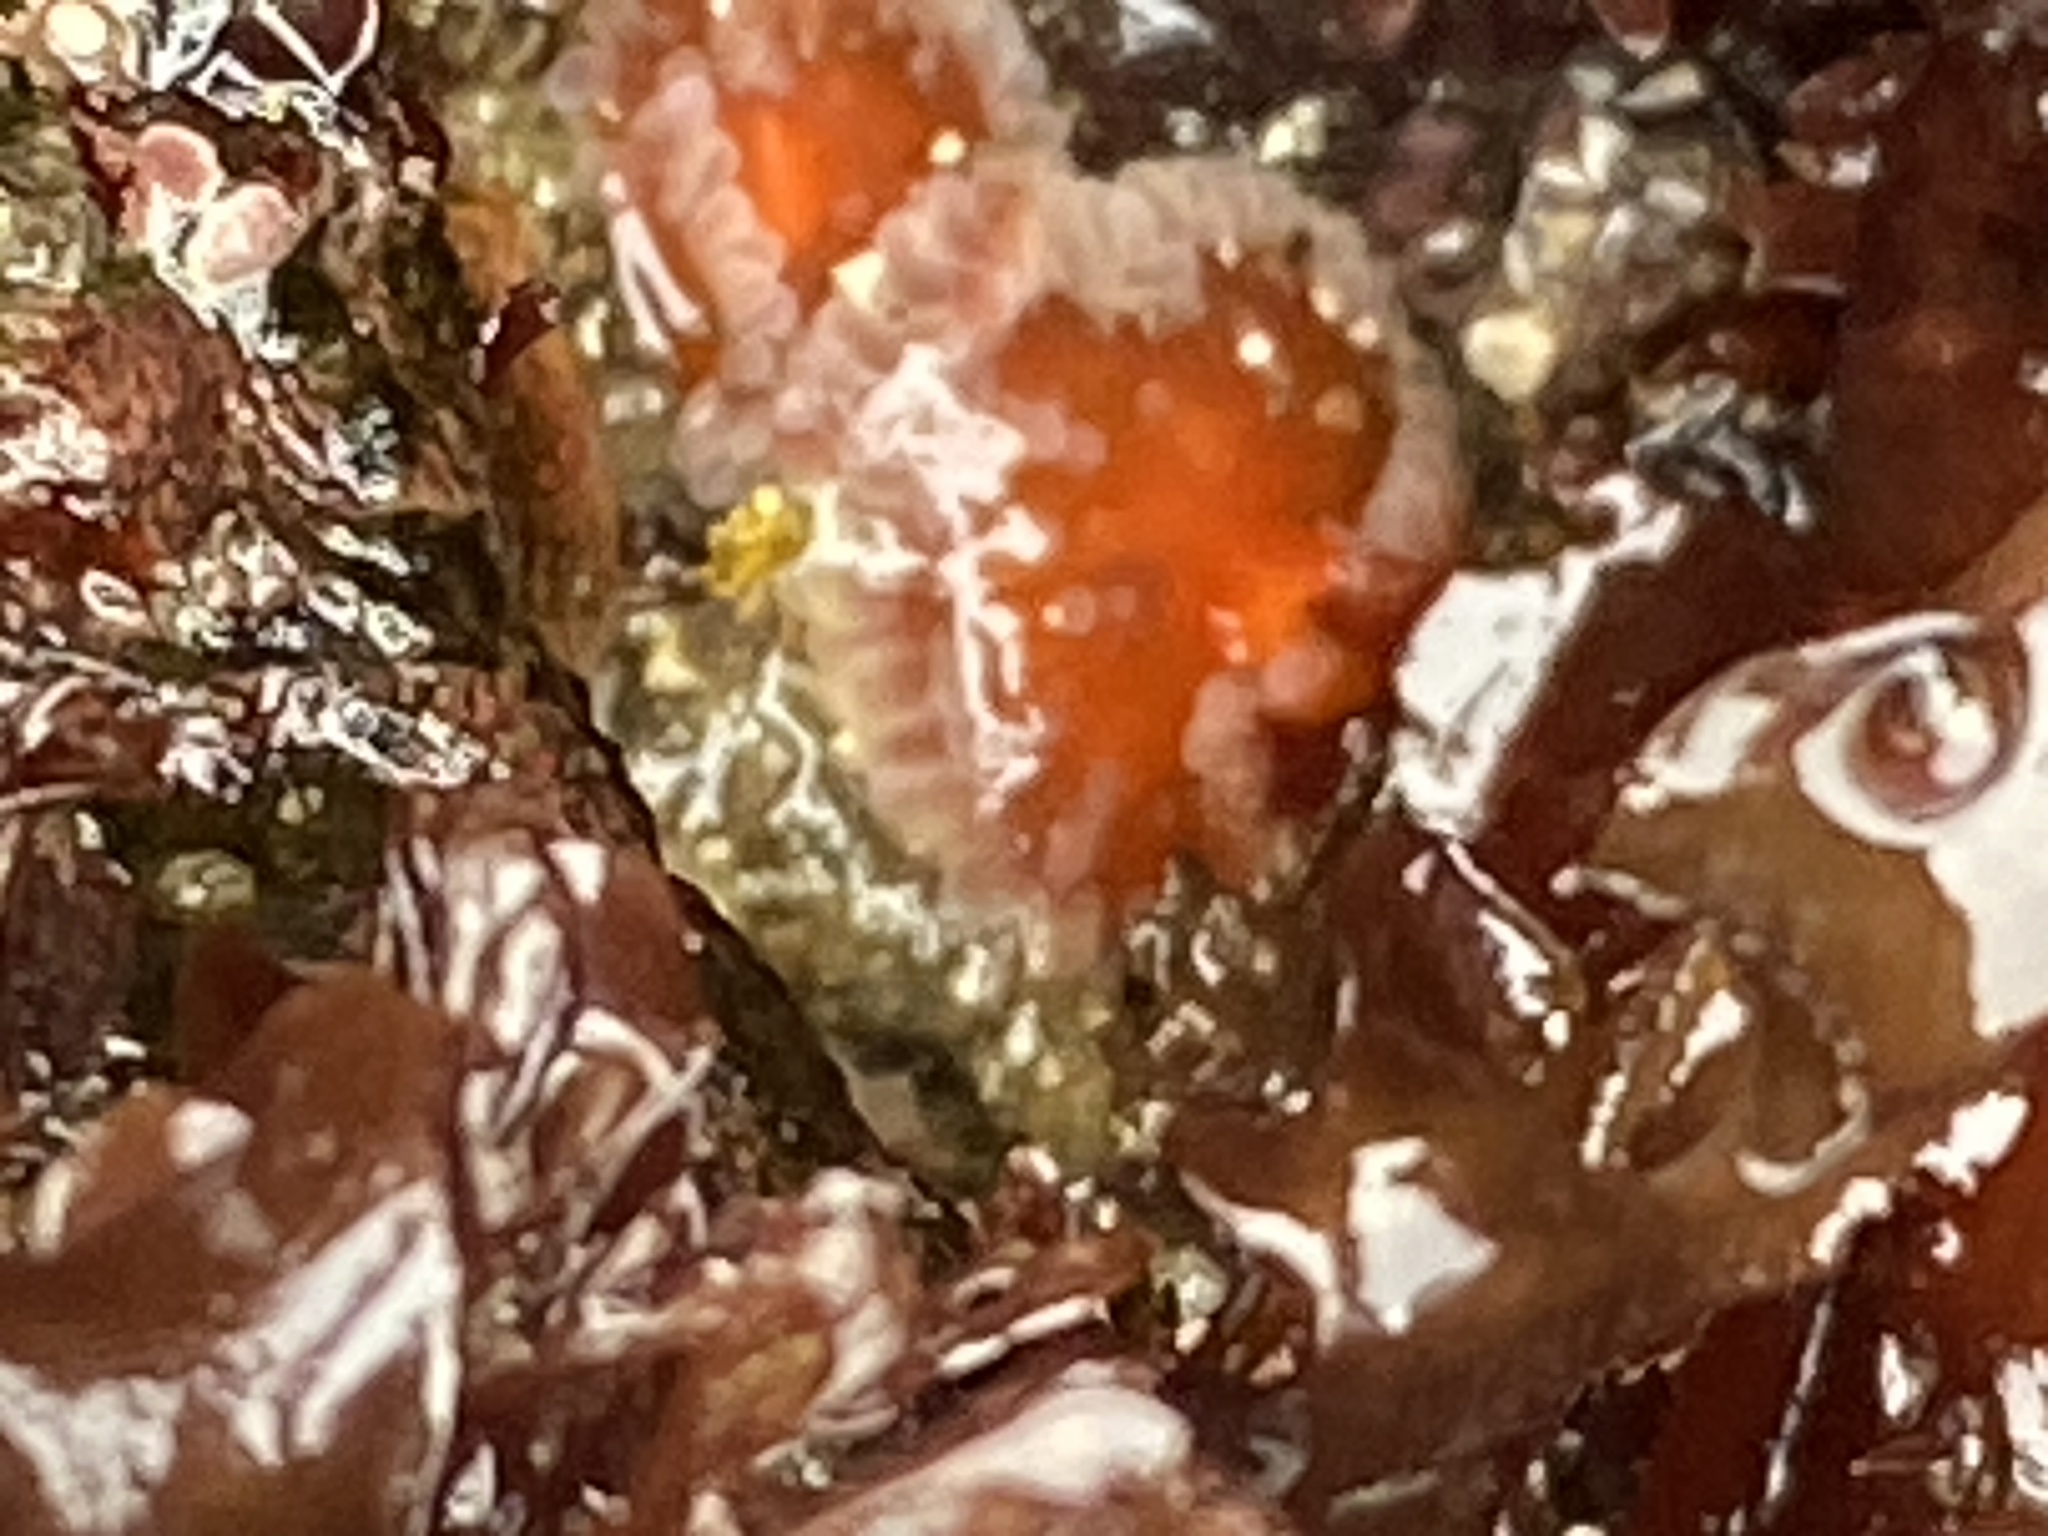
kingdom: Animalia
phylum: Cnidaria
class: Anthozoa
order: Corallimorpharia
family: Corallimorphidae
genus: Corynactis
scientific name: Corynactis californica
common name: Strawberry corallimorpharian
